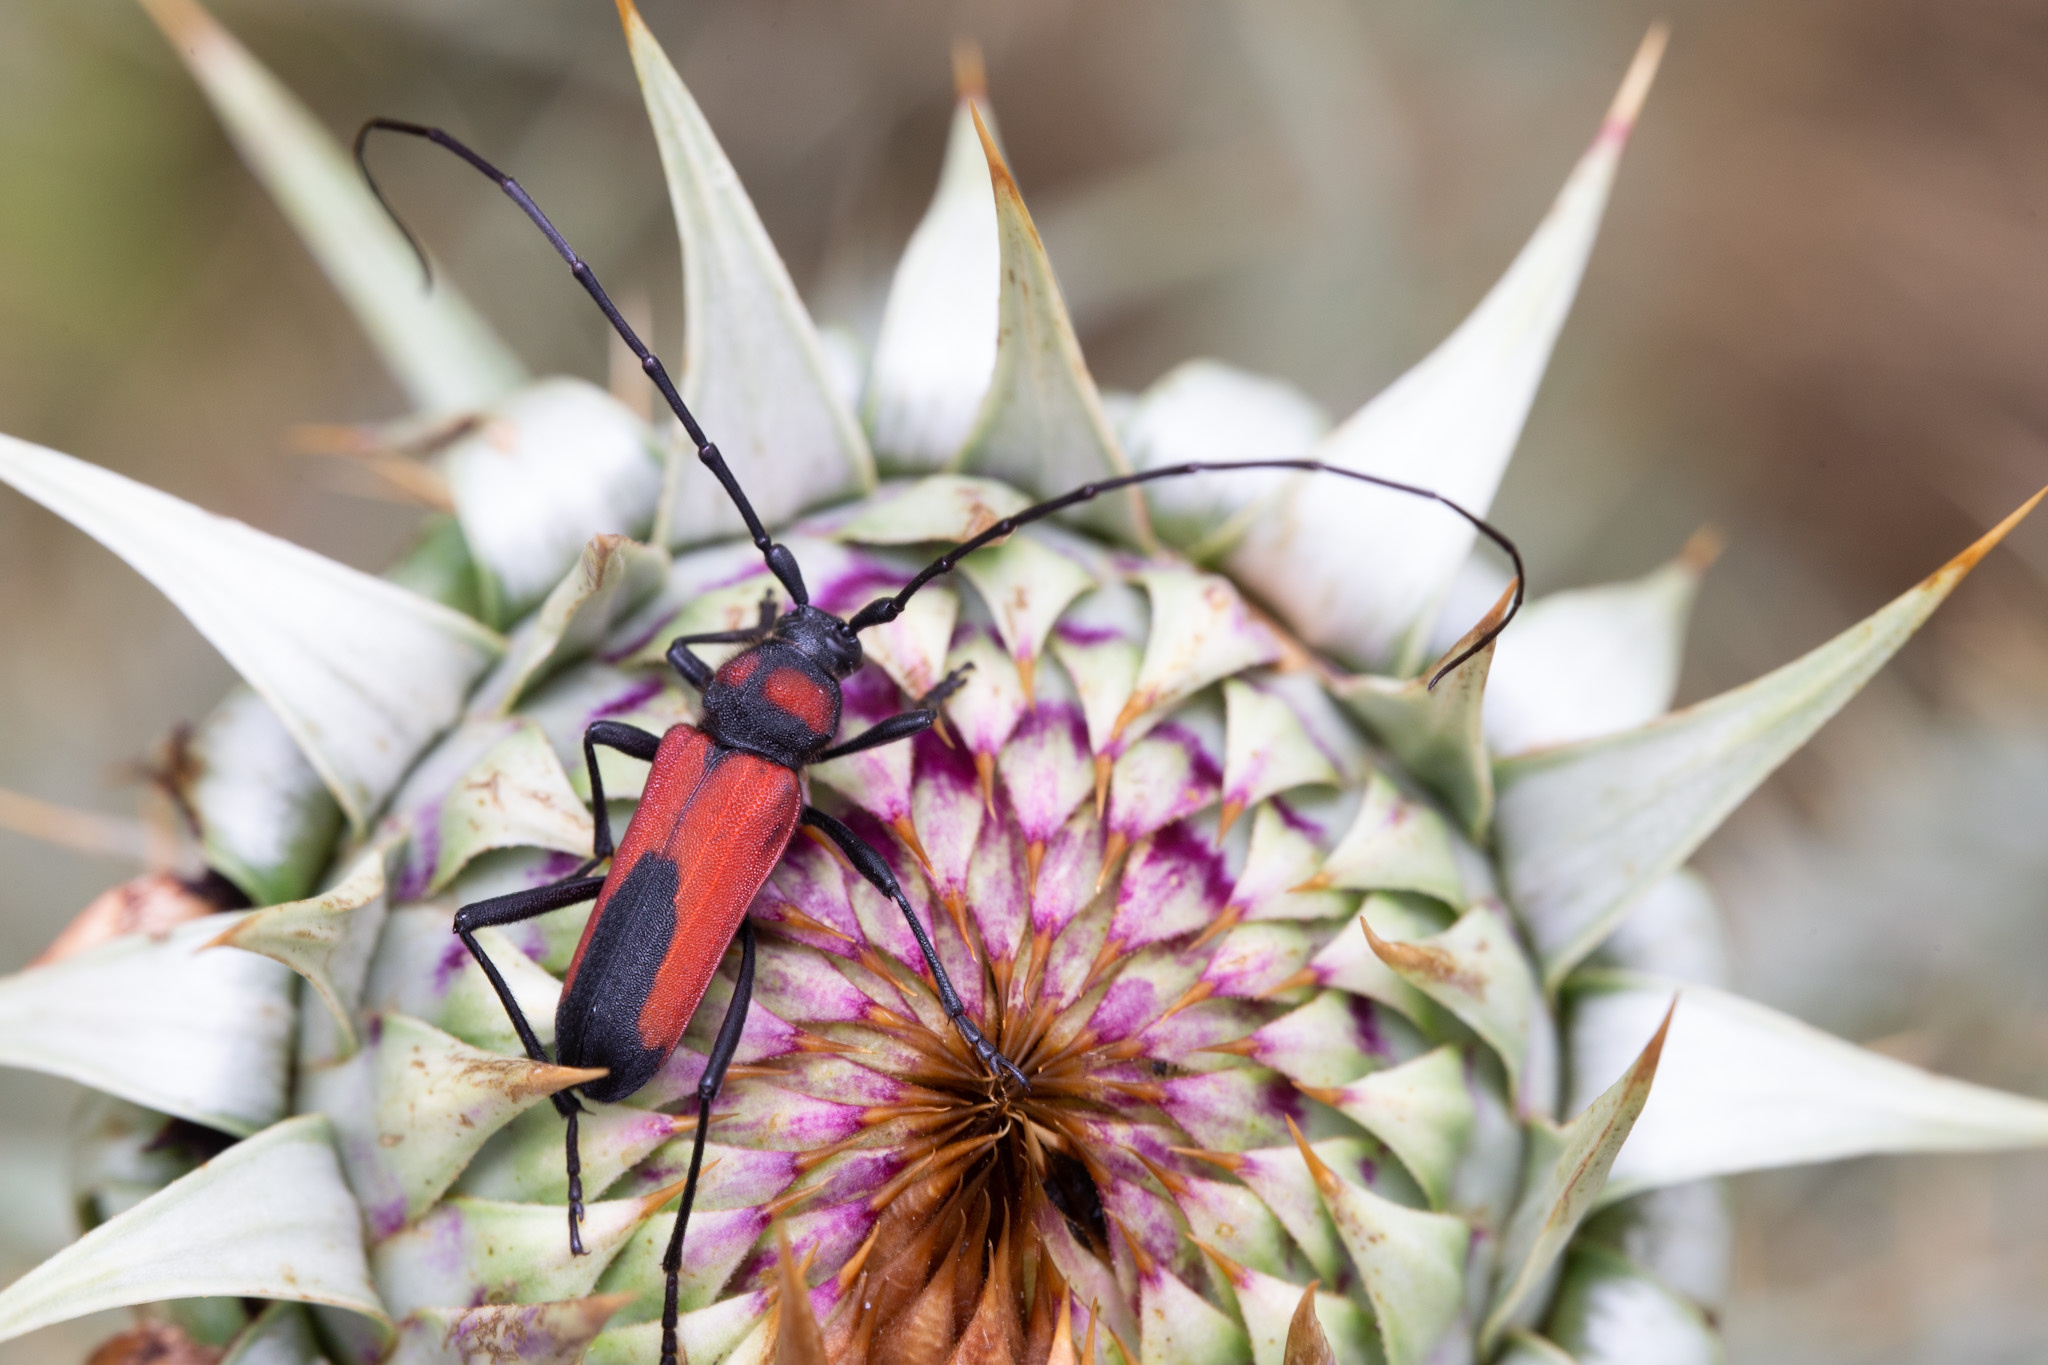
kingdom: Animalia
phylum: Arthropoda
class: Insecta
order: Coleoptera
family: Cerambycidae
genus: Purpuricenus
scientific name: Purpuricenus budensis
